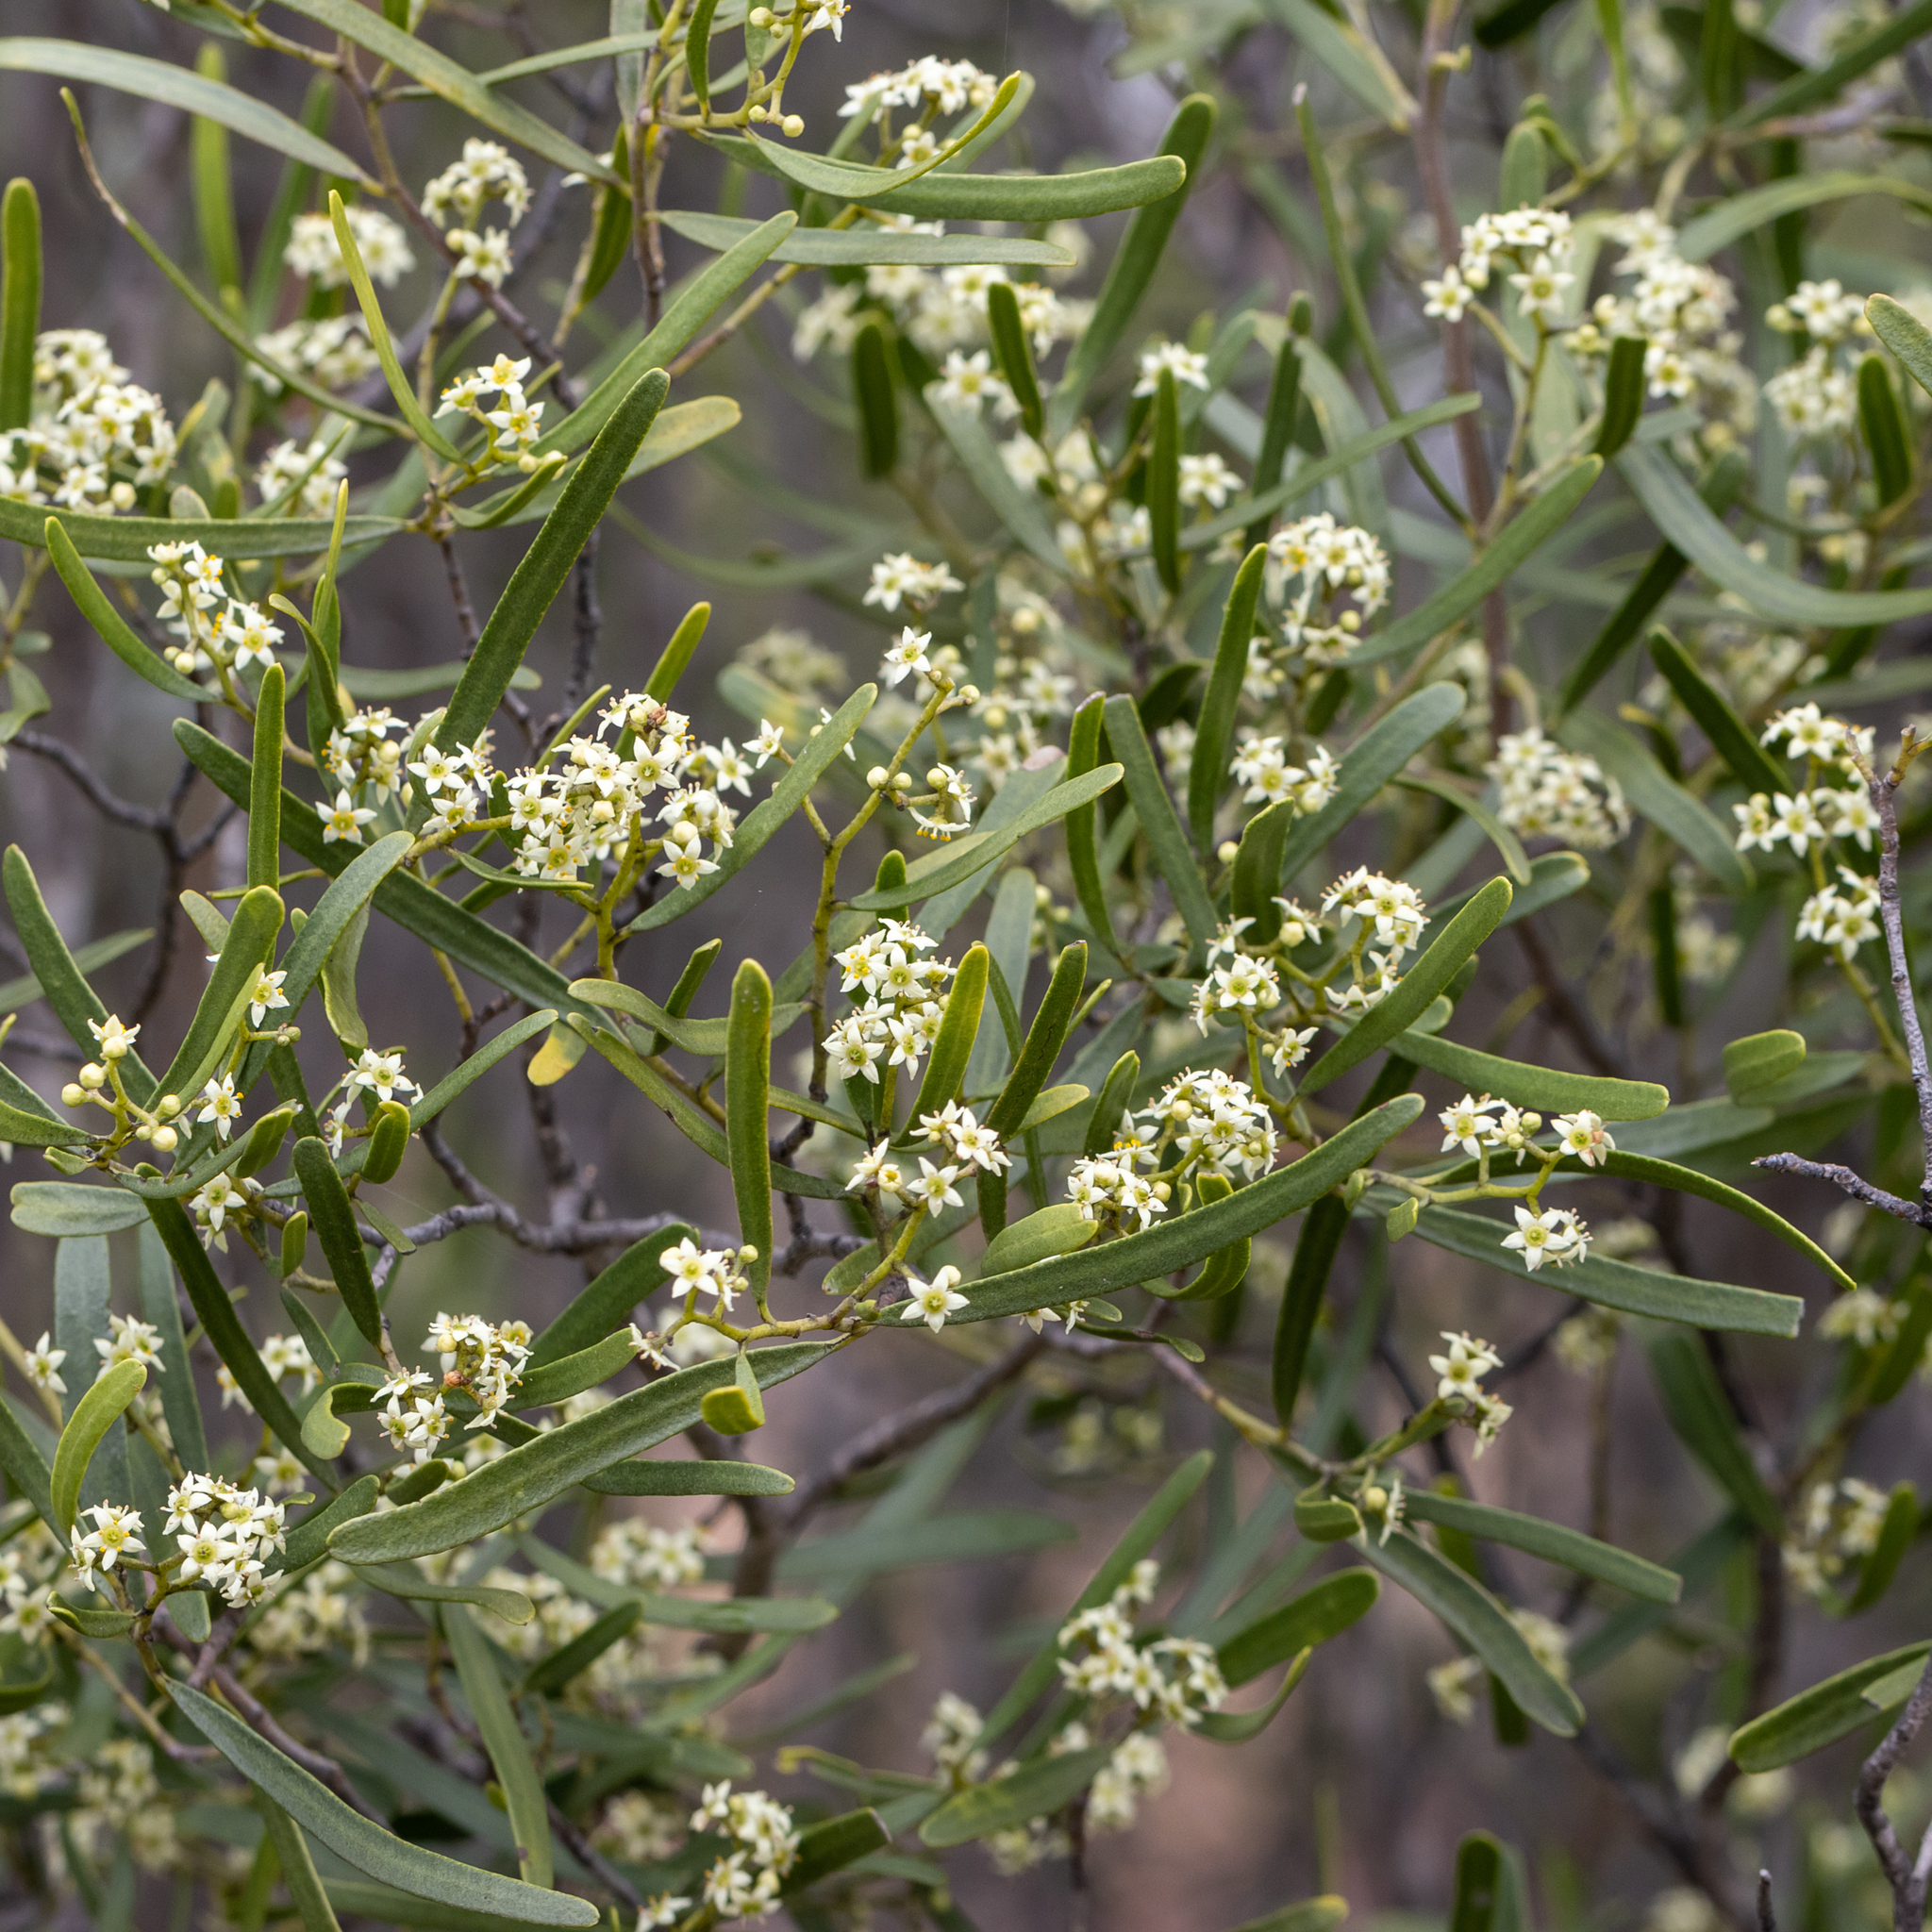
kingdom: Plantae
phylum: Tracheophyta
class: Magnoliopsida
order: Sapindales
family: Rutaceae
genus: Geijera
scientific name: Geijera linearifolia
